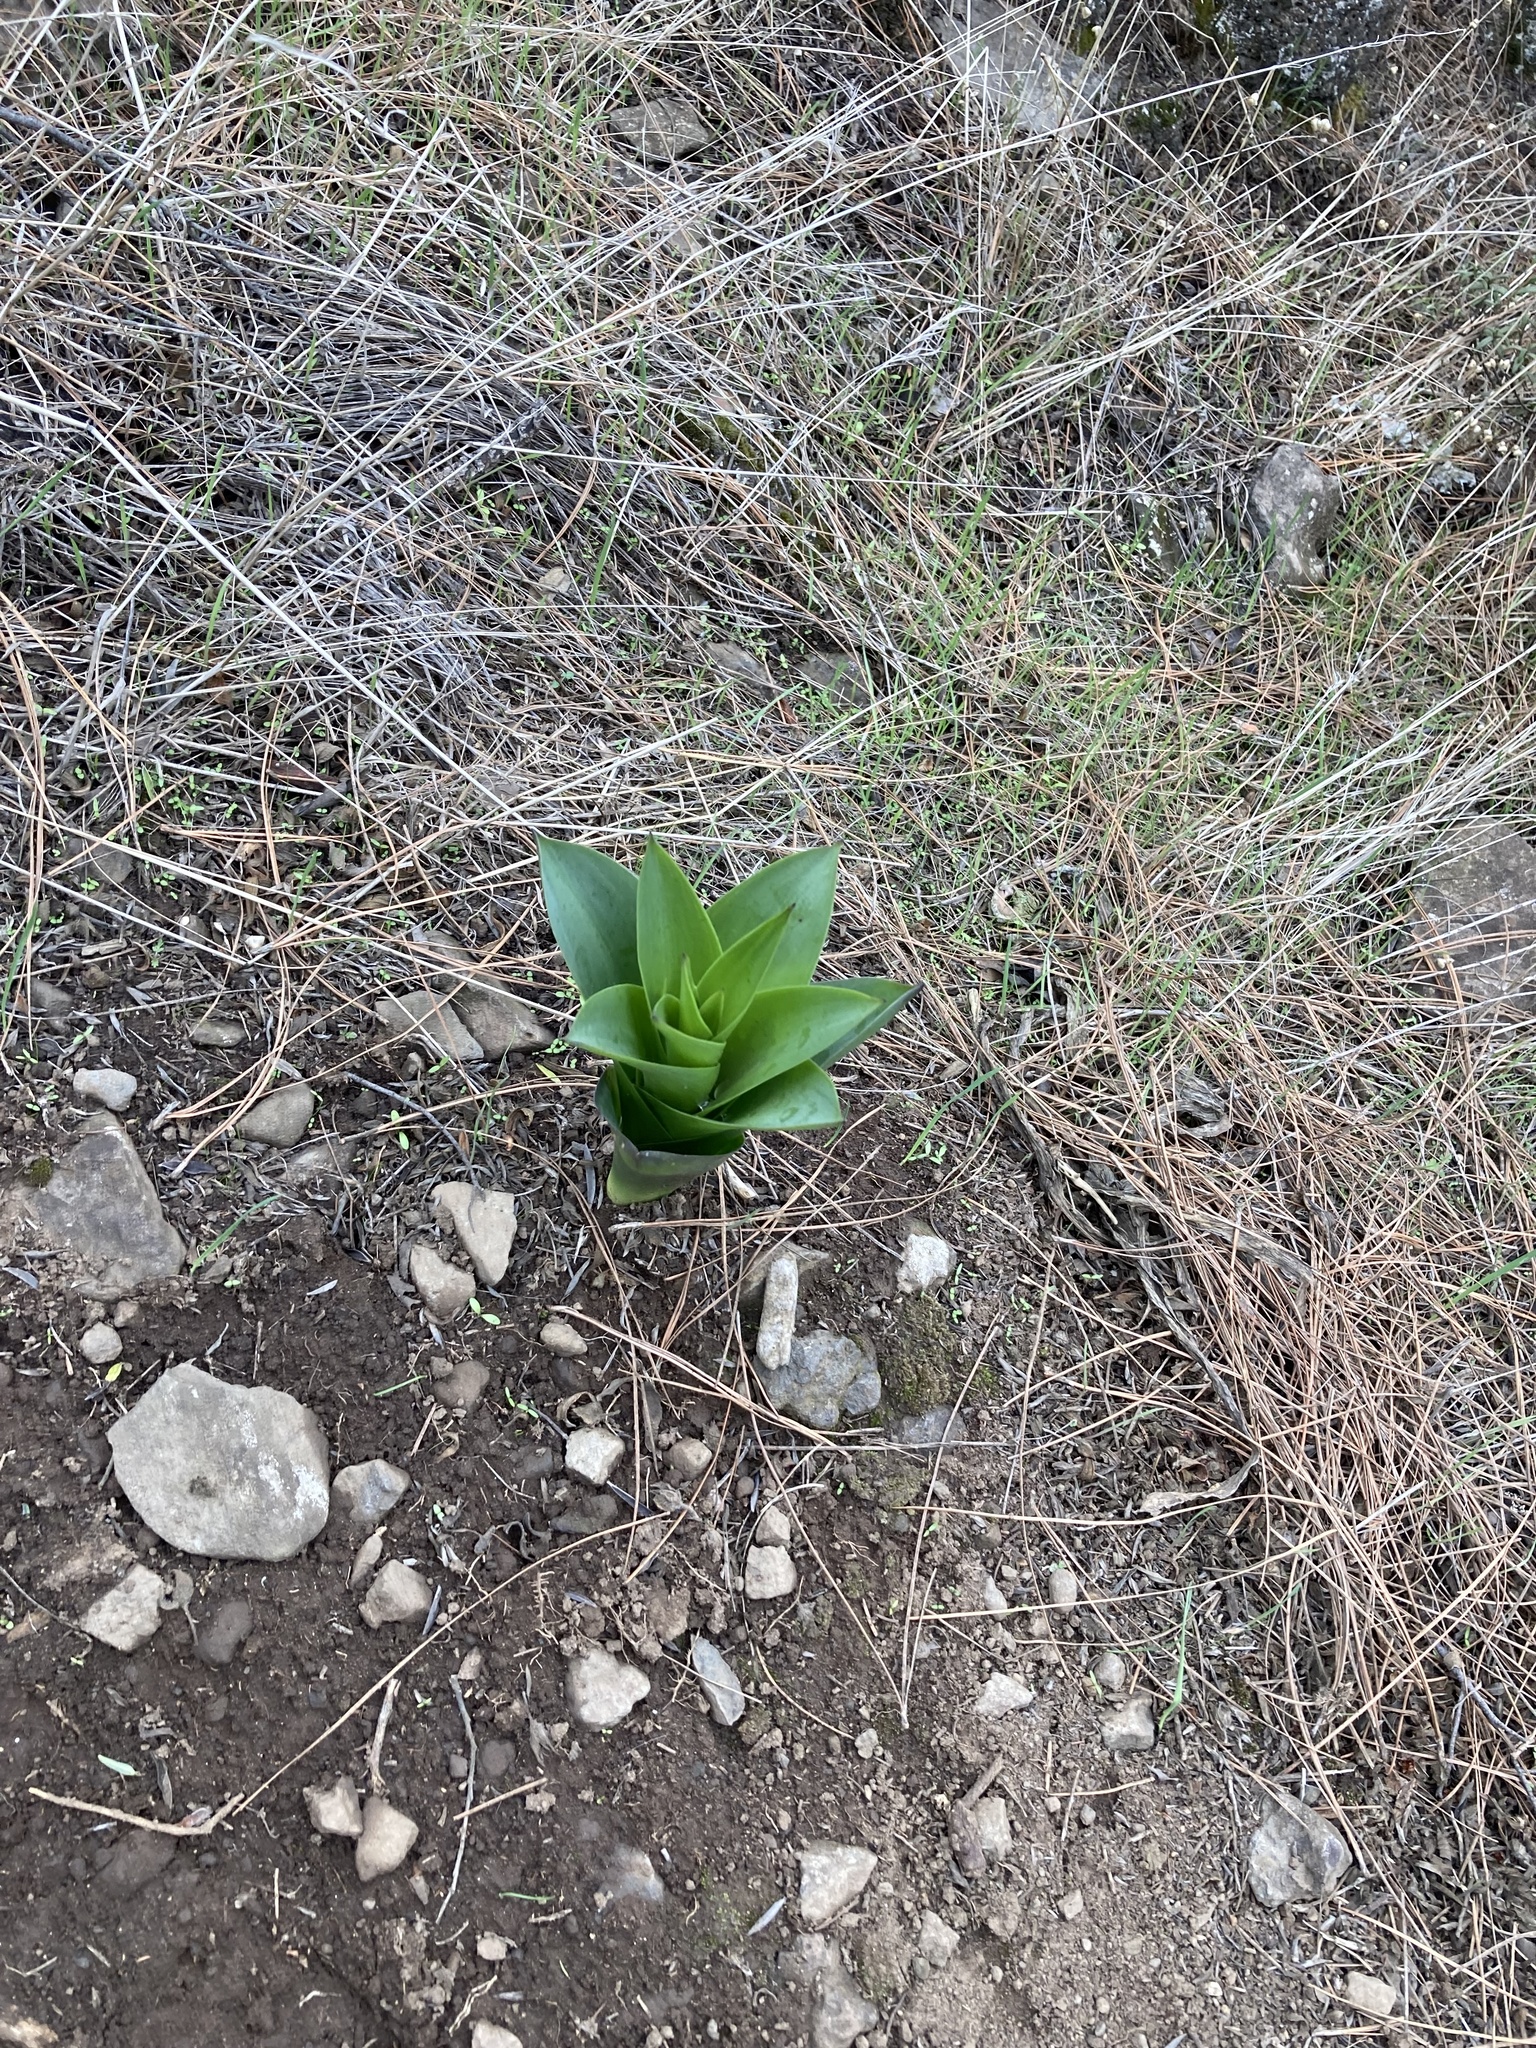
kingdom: Plantae
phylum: Tracheophyta
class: Liliopsida
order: Asparagales
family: Asparagaceae
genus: Drimia
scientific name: Drimia hesperia
